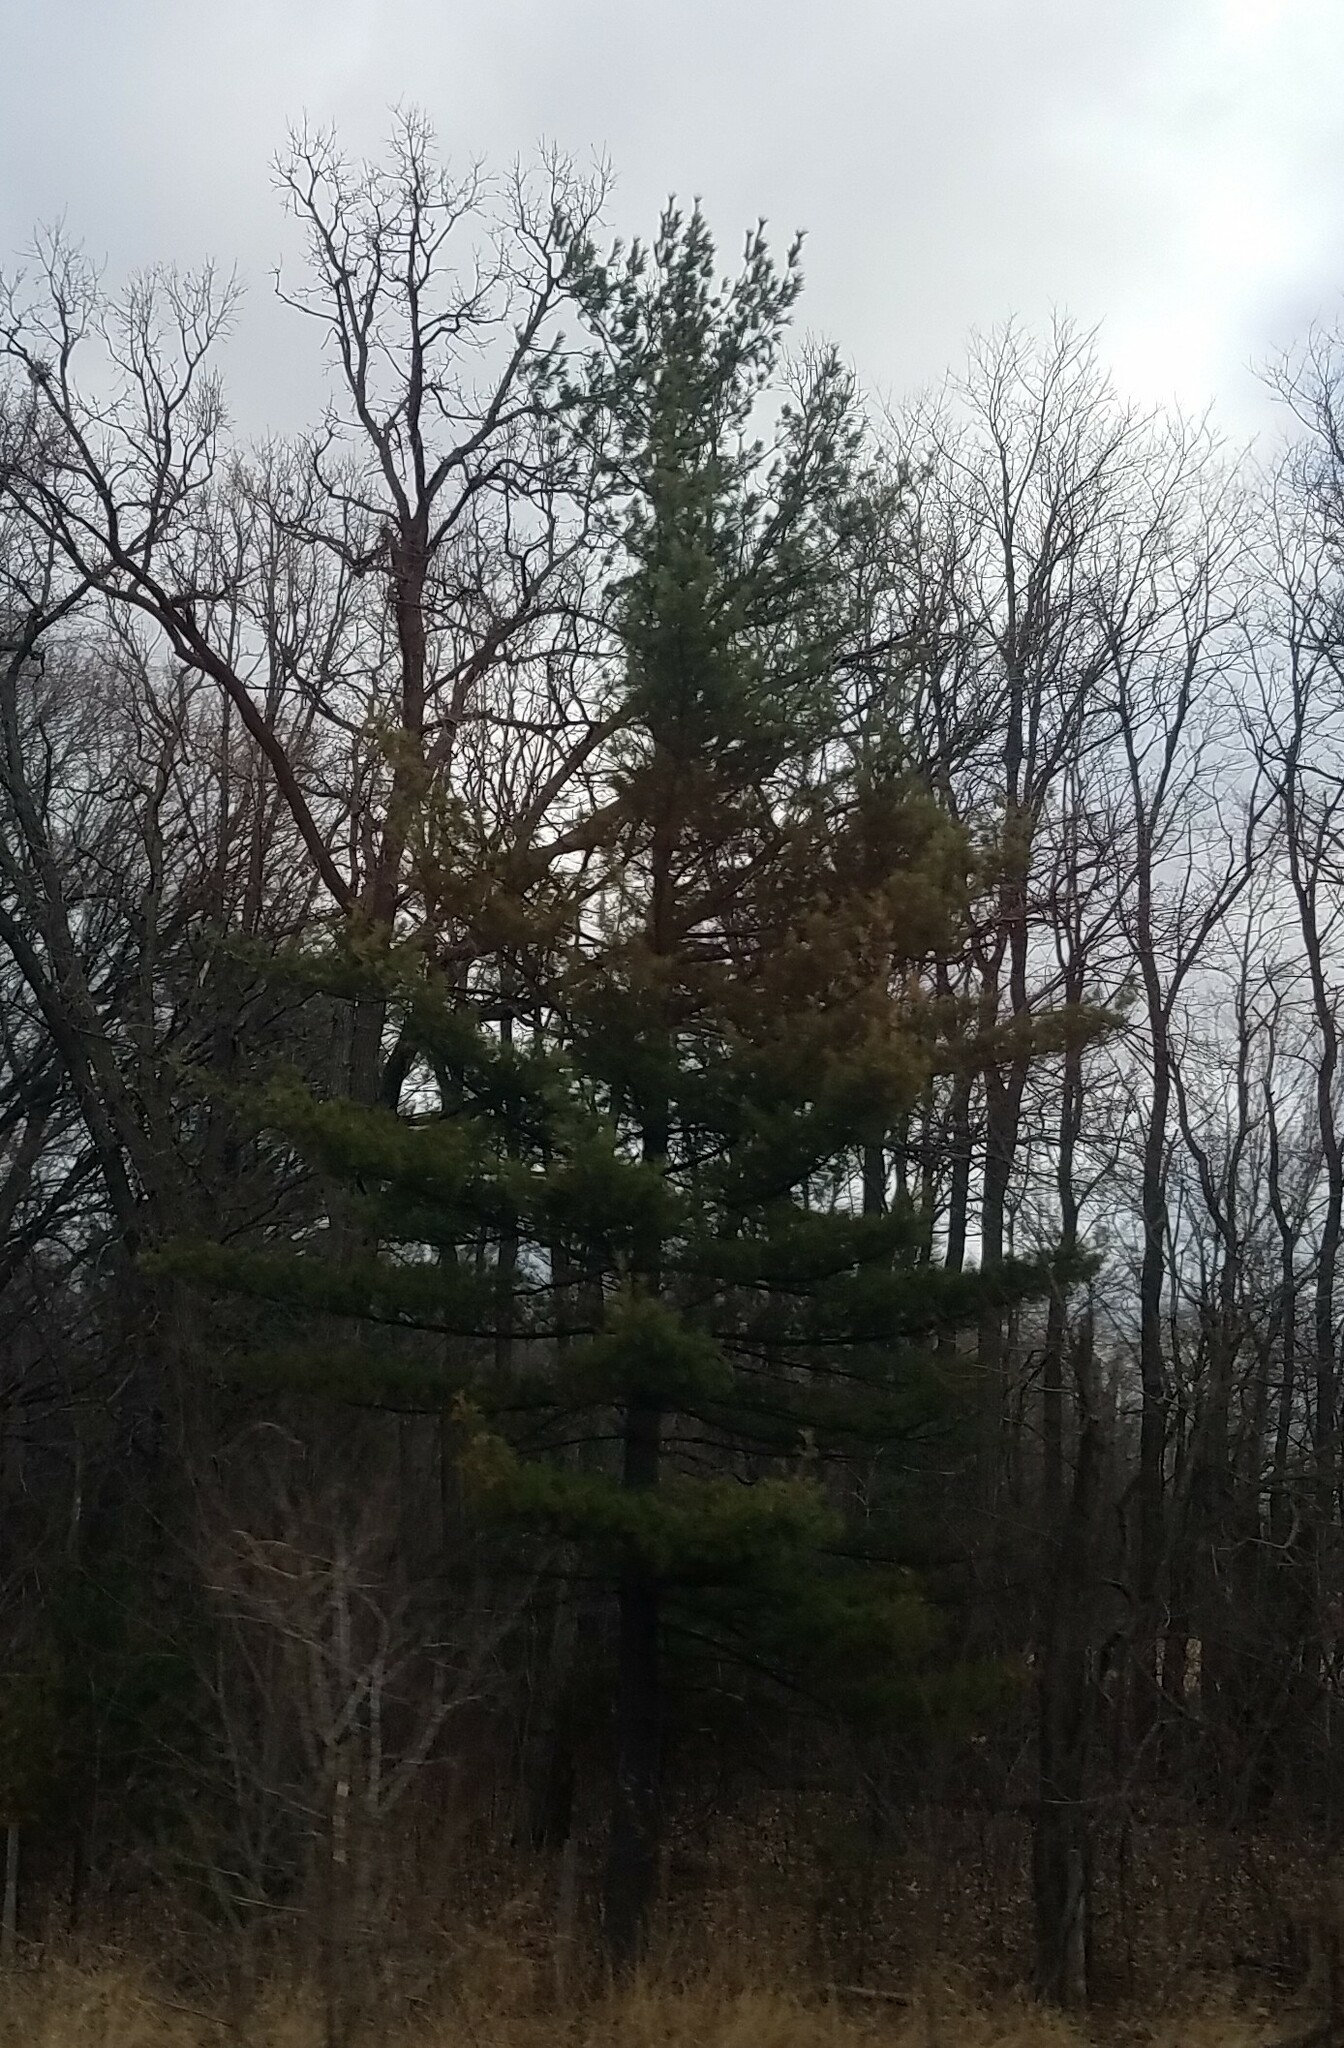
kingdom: Plantae
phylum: Tracheophyta
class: Pinopsida
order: Pinales
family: Pinaceae
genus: Pinus
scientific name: Pinus strobus
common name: Weymouth pine
